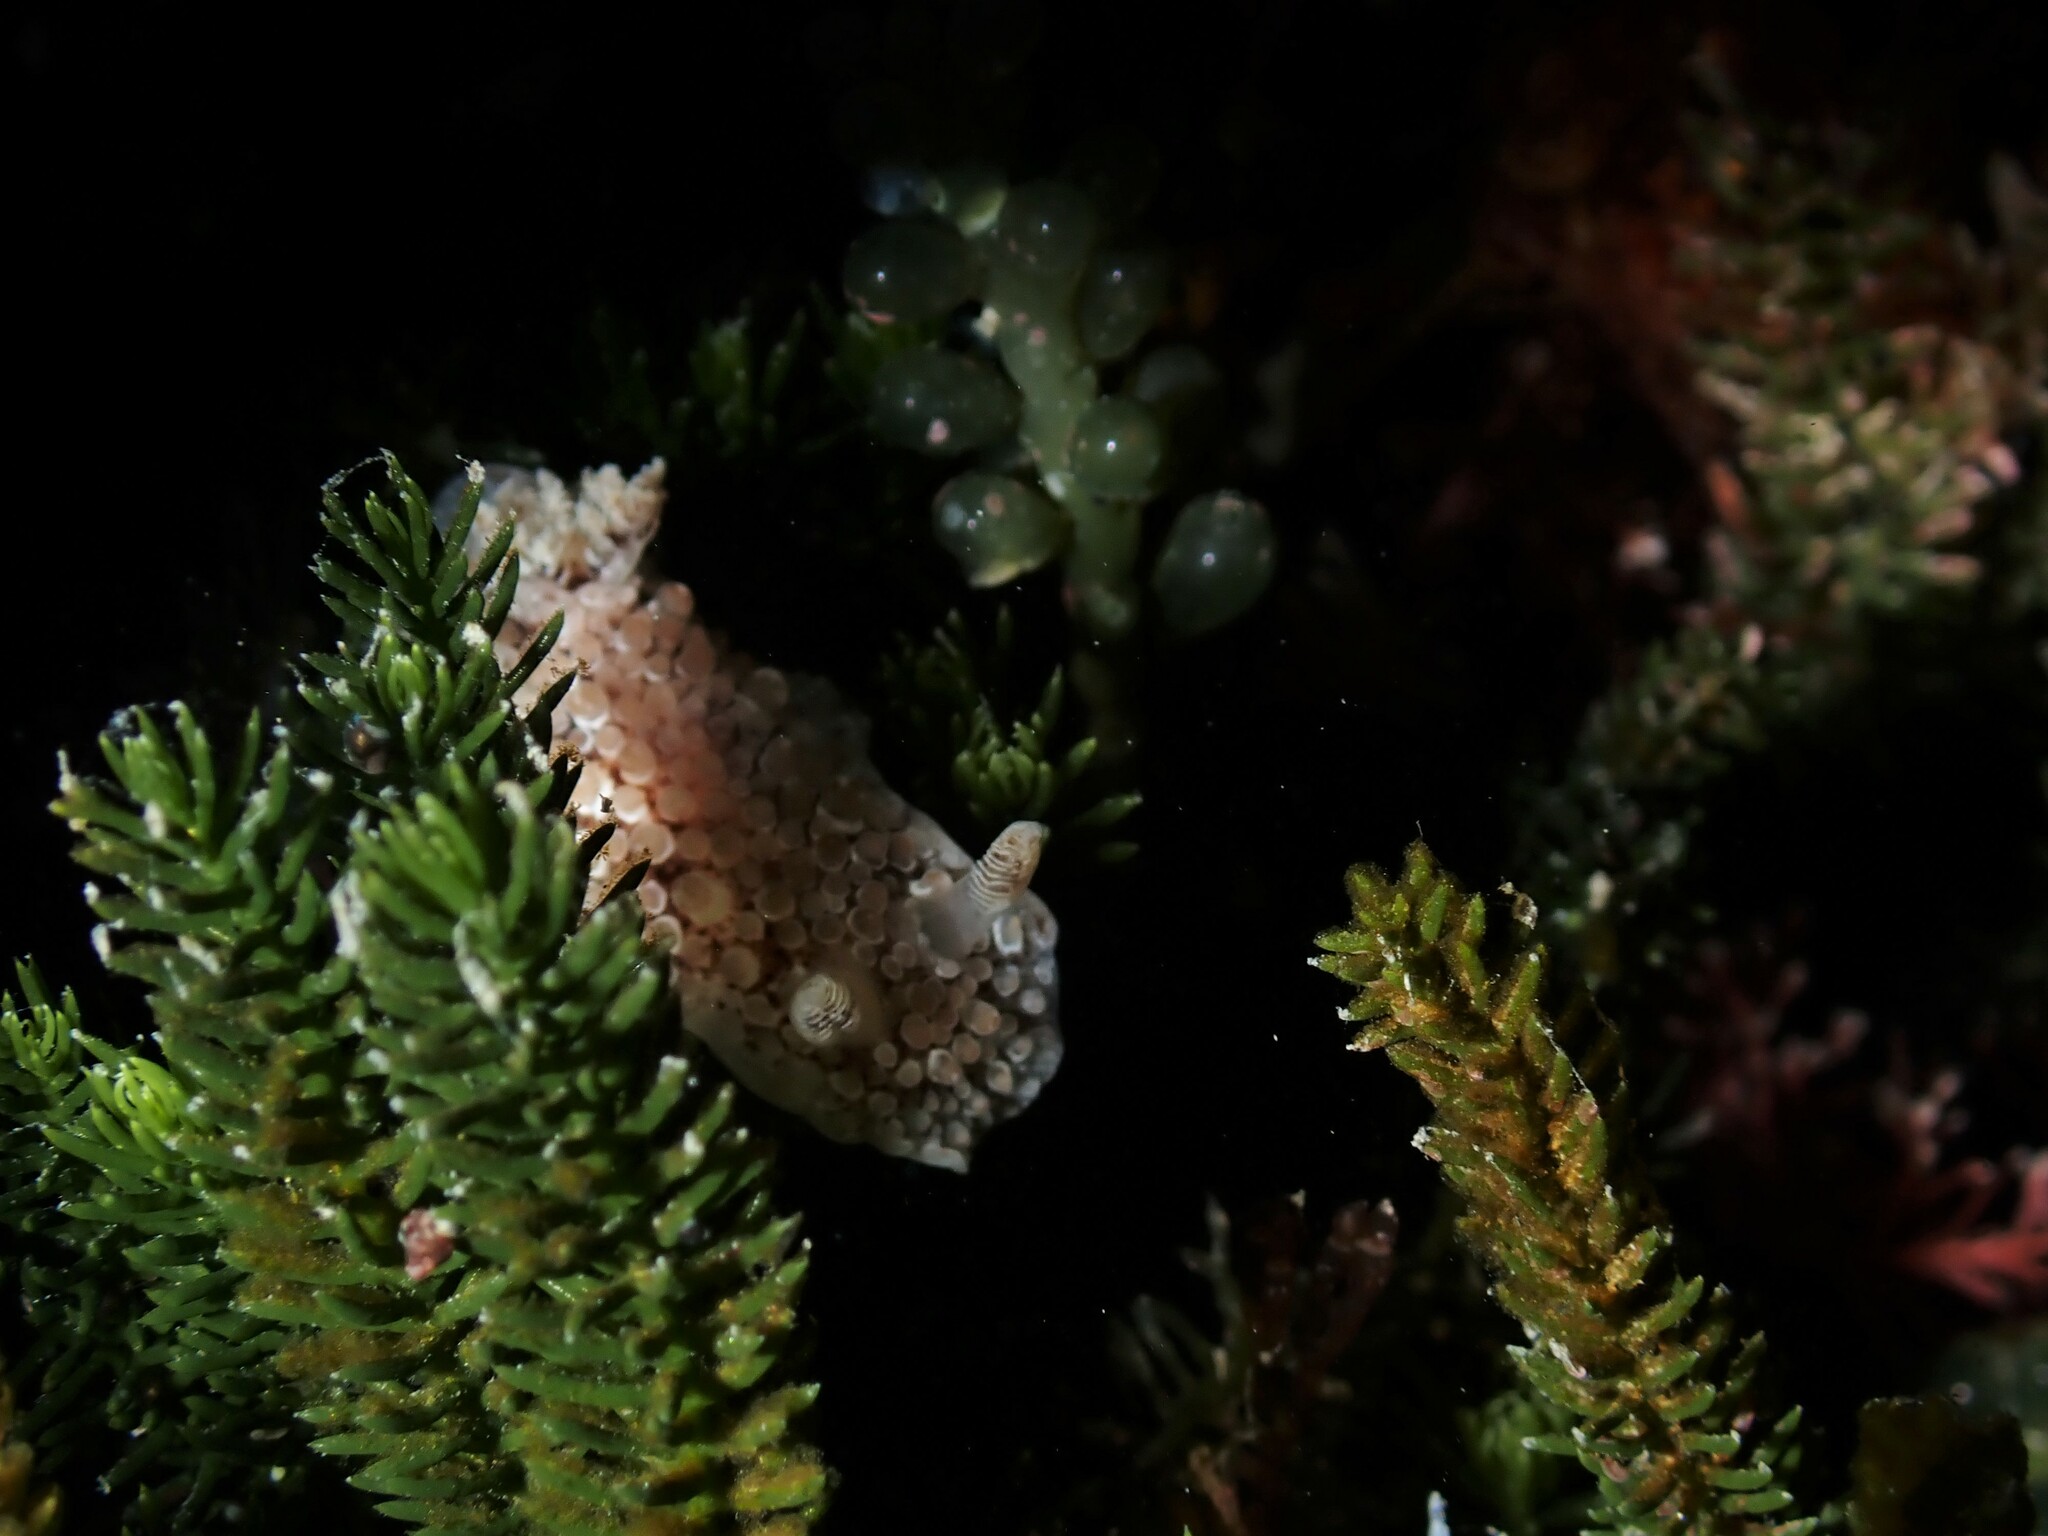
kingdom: Animalia
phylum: Mollusca
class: Gastropoda
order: Nudibranchia
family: Discodorididae
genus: Carminodoris
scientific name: Carminodoris nodulosa
